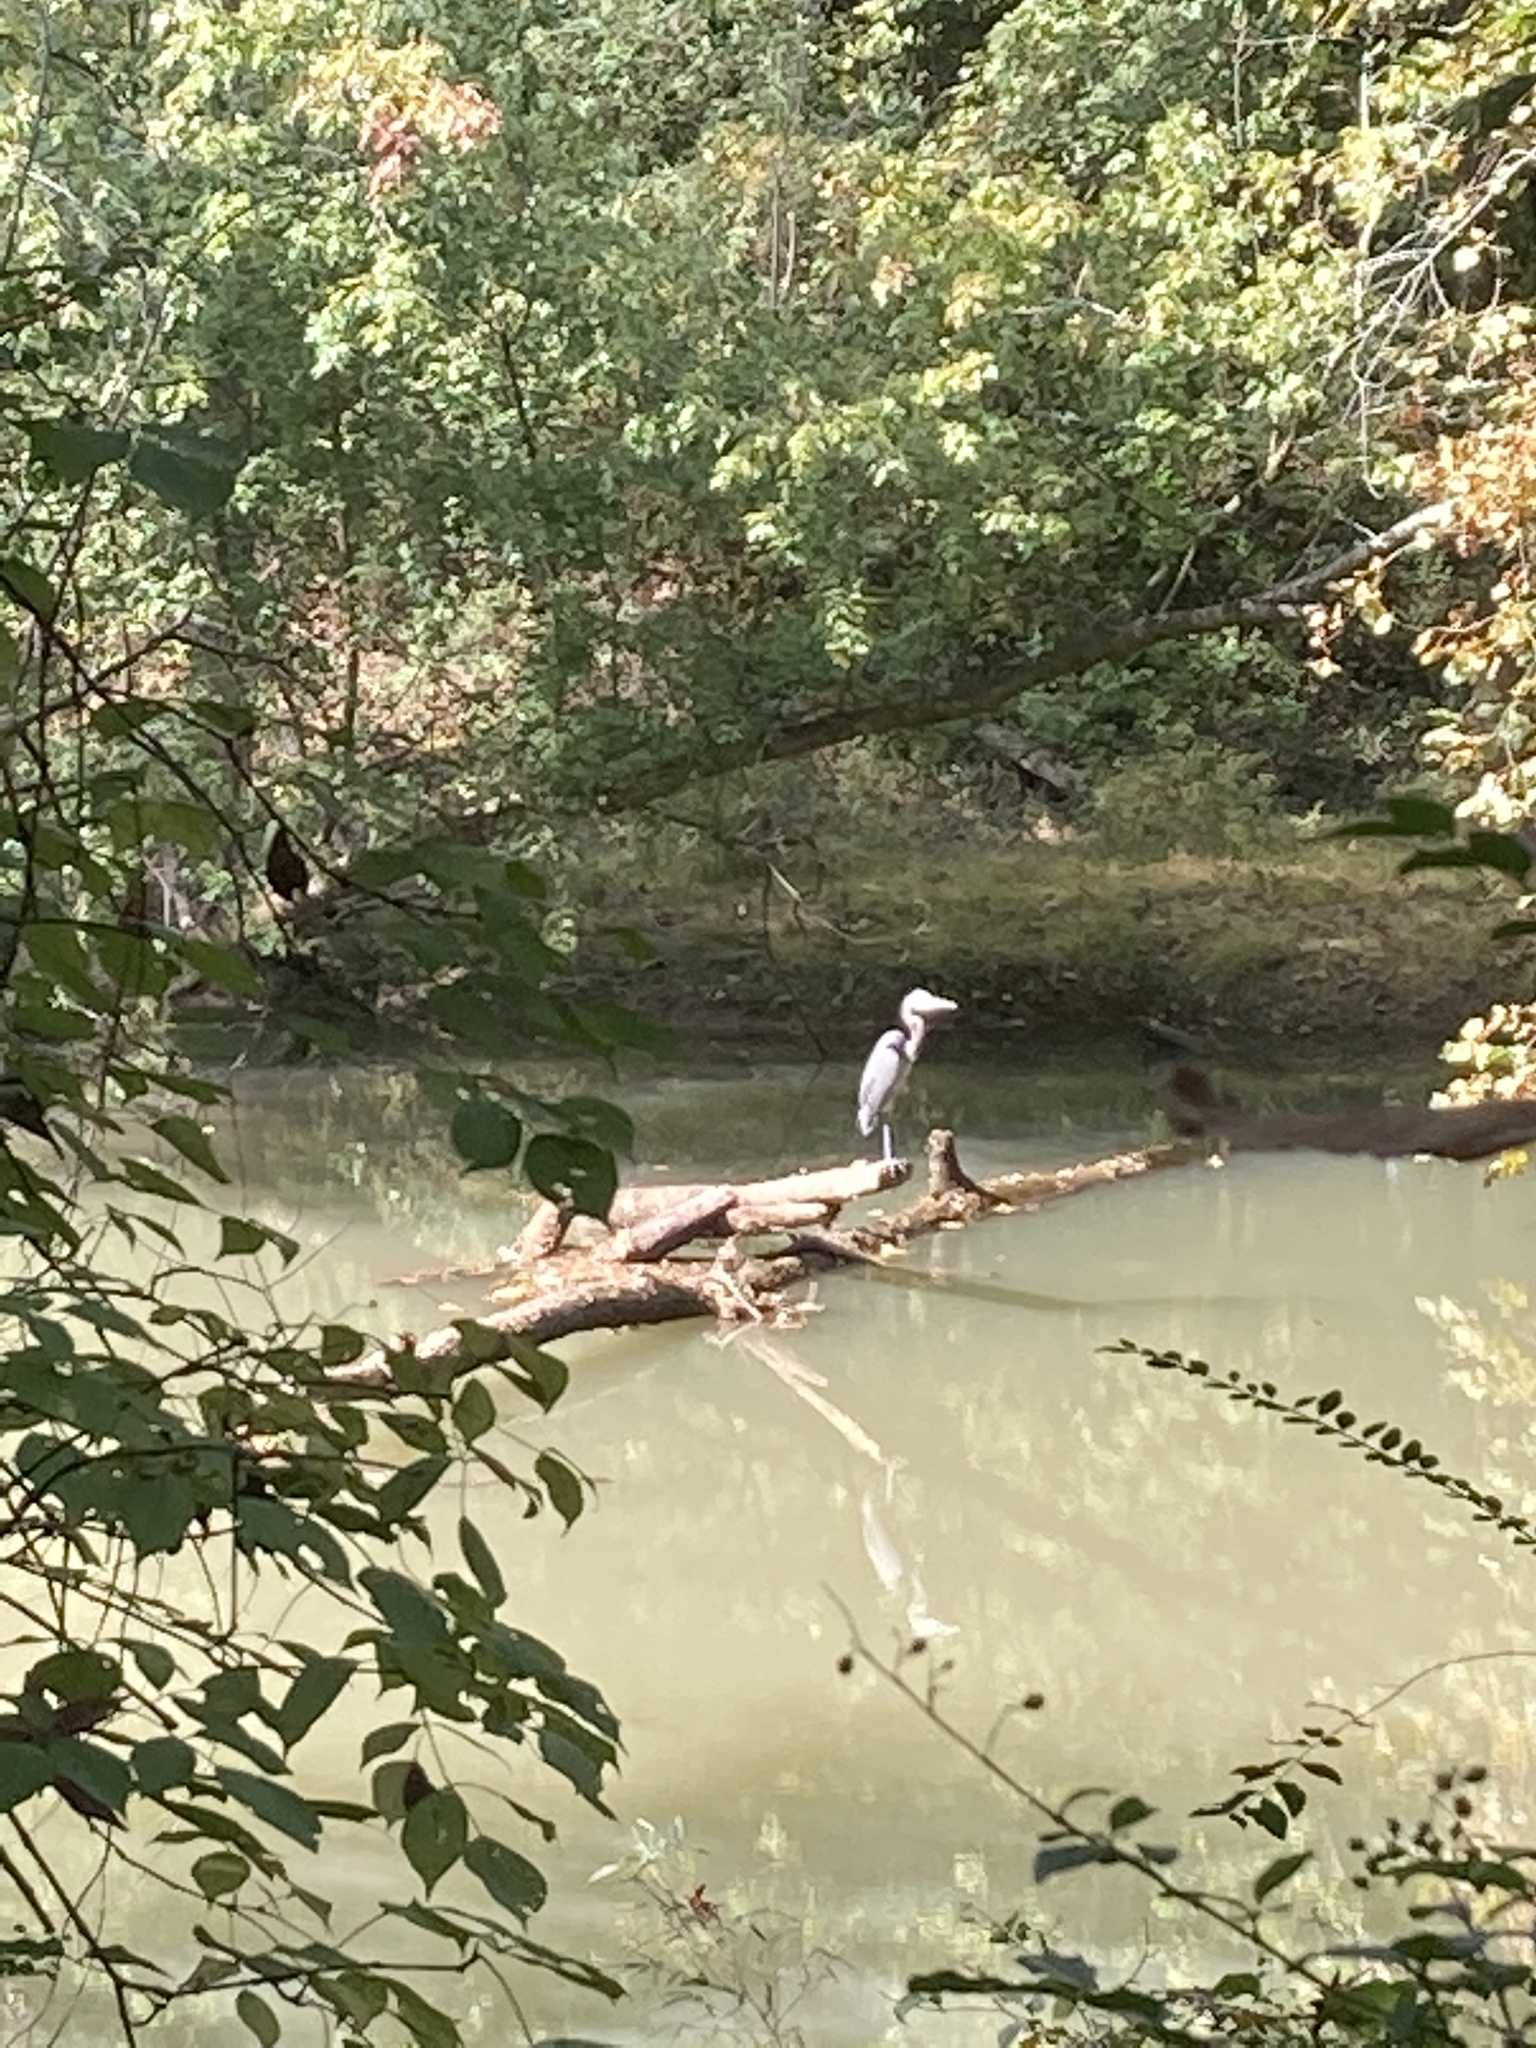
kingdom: Animalia
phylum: Chordata
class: Aves
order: Pelecaniformes
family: Ardeidae
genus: Ardea
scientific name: Ardea herodias
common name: Great blue heron
